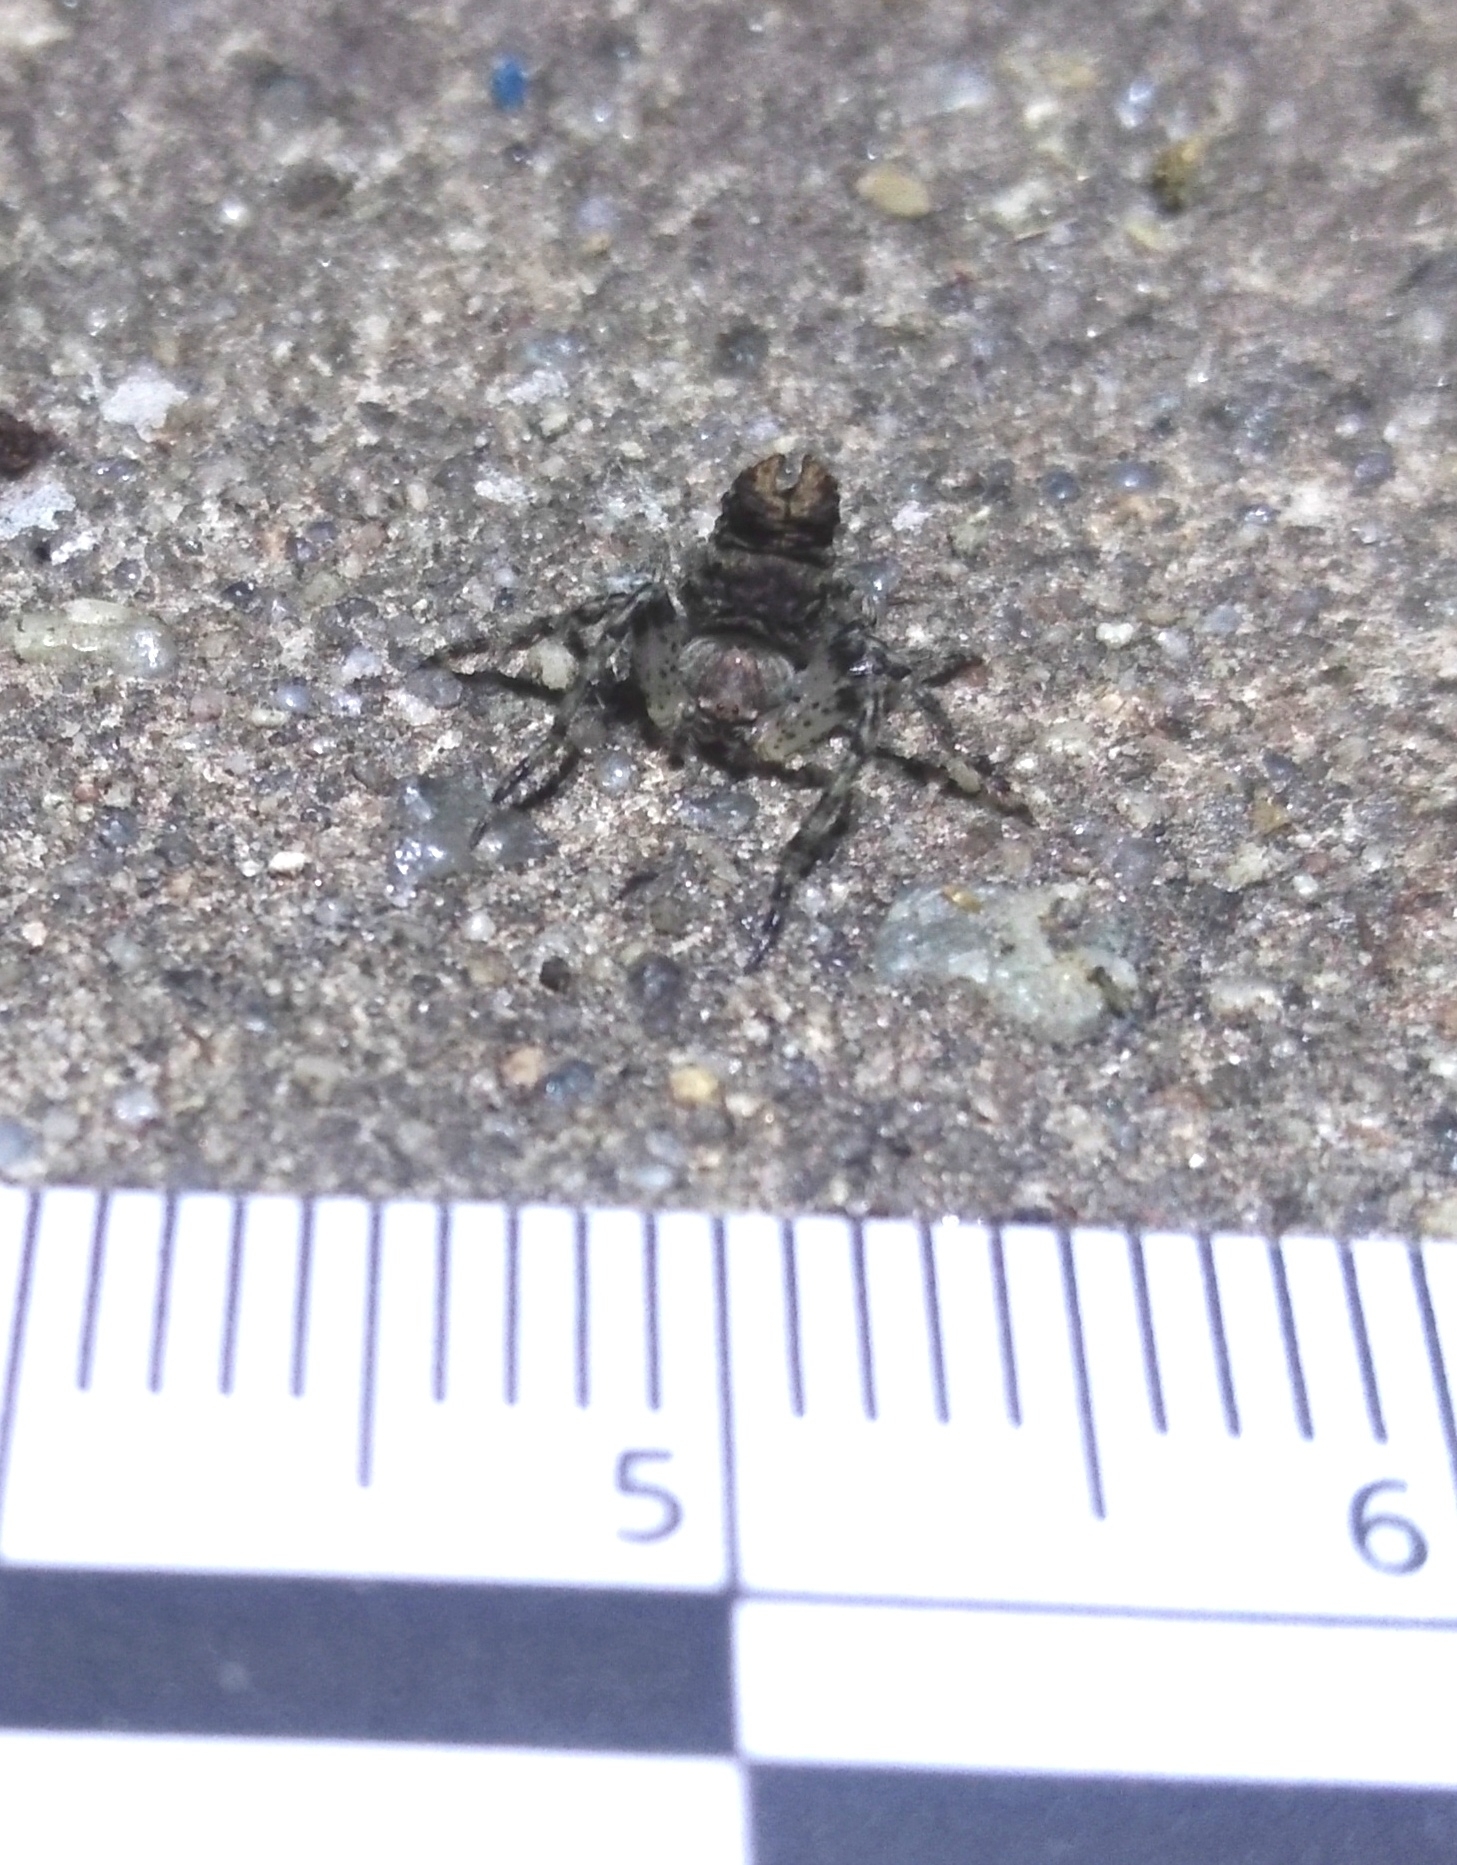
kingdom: Animalia
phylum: Arthropoda
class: Arachnida
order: Araneae
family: Araneidae
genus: Kaira
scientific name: Kaira gibberosa
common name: Orb weavers
